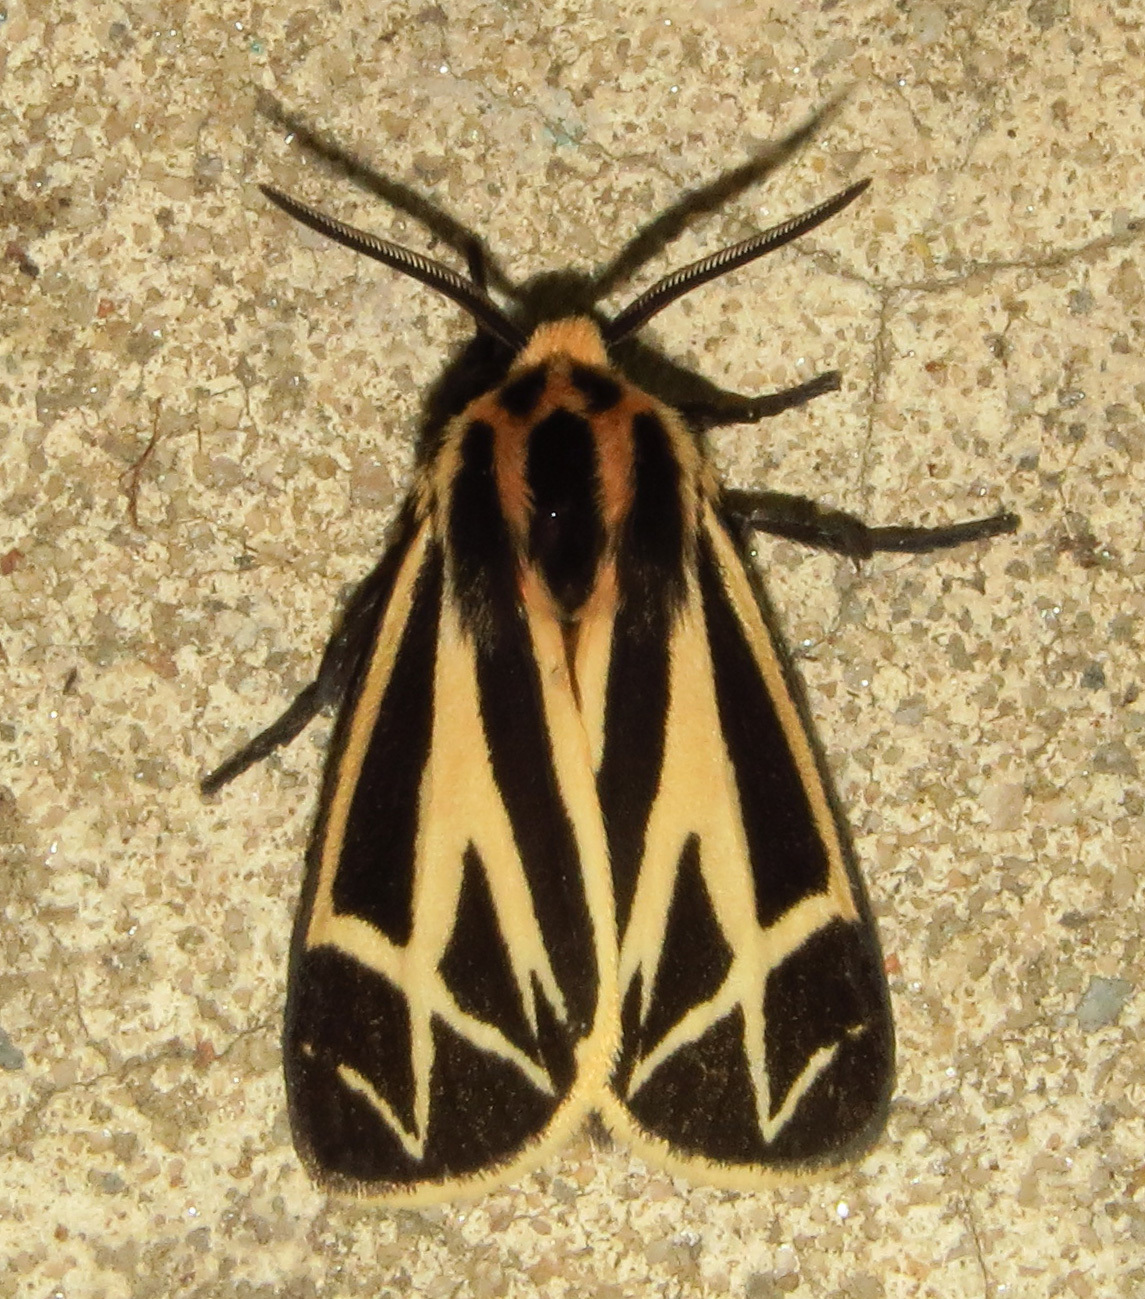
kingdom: Animalia
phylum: Arthropoda
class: Insecta
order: Lepidoptera
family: Erebidae
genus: Apantesis
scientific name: Apantesis phalerata
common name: Harnessed tiger moth
